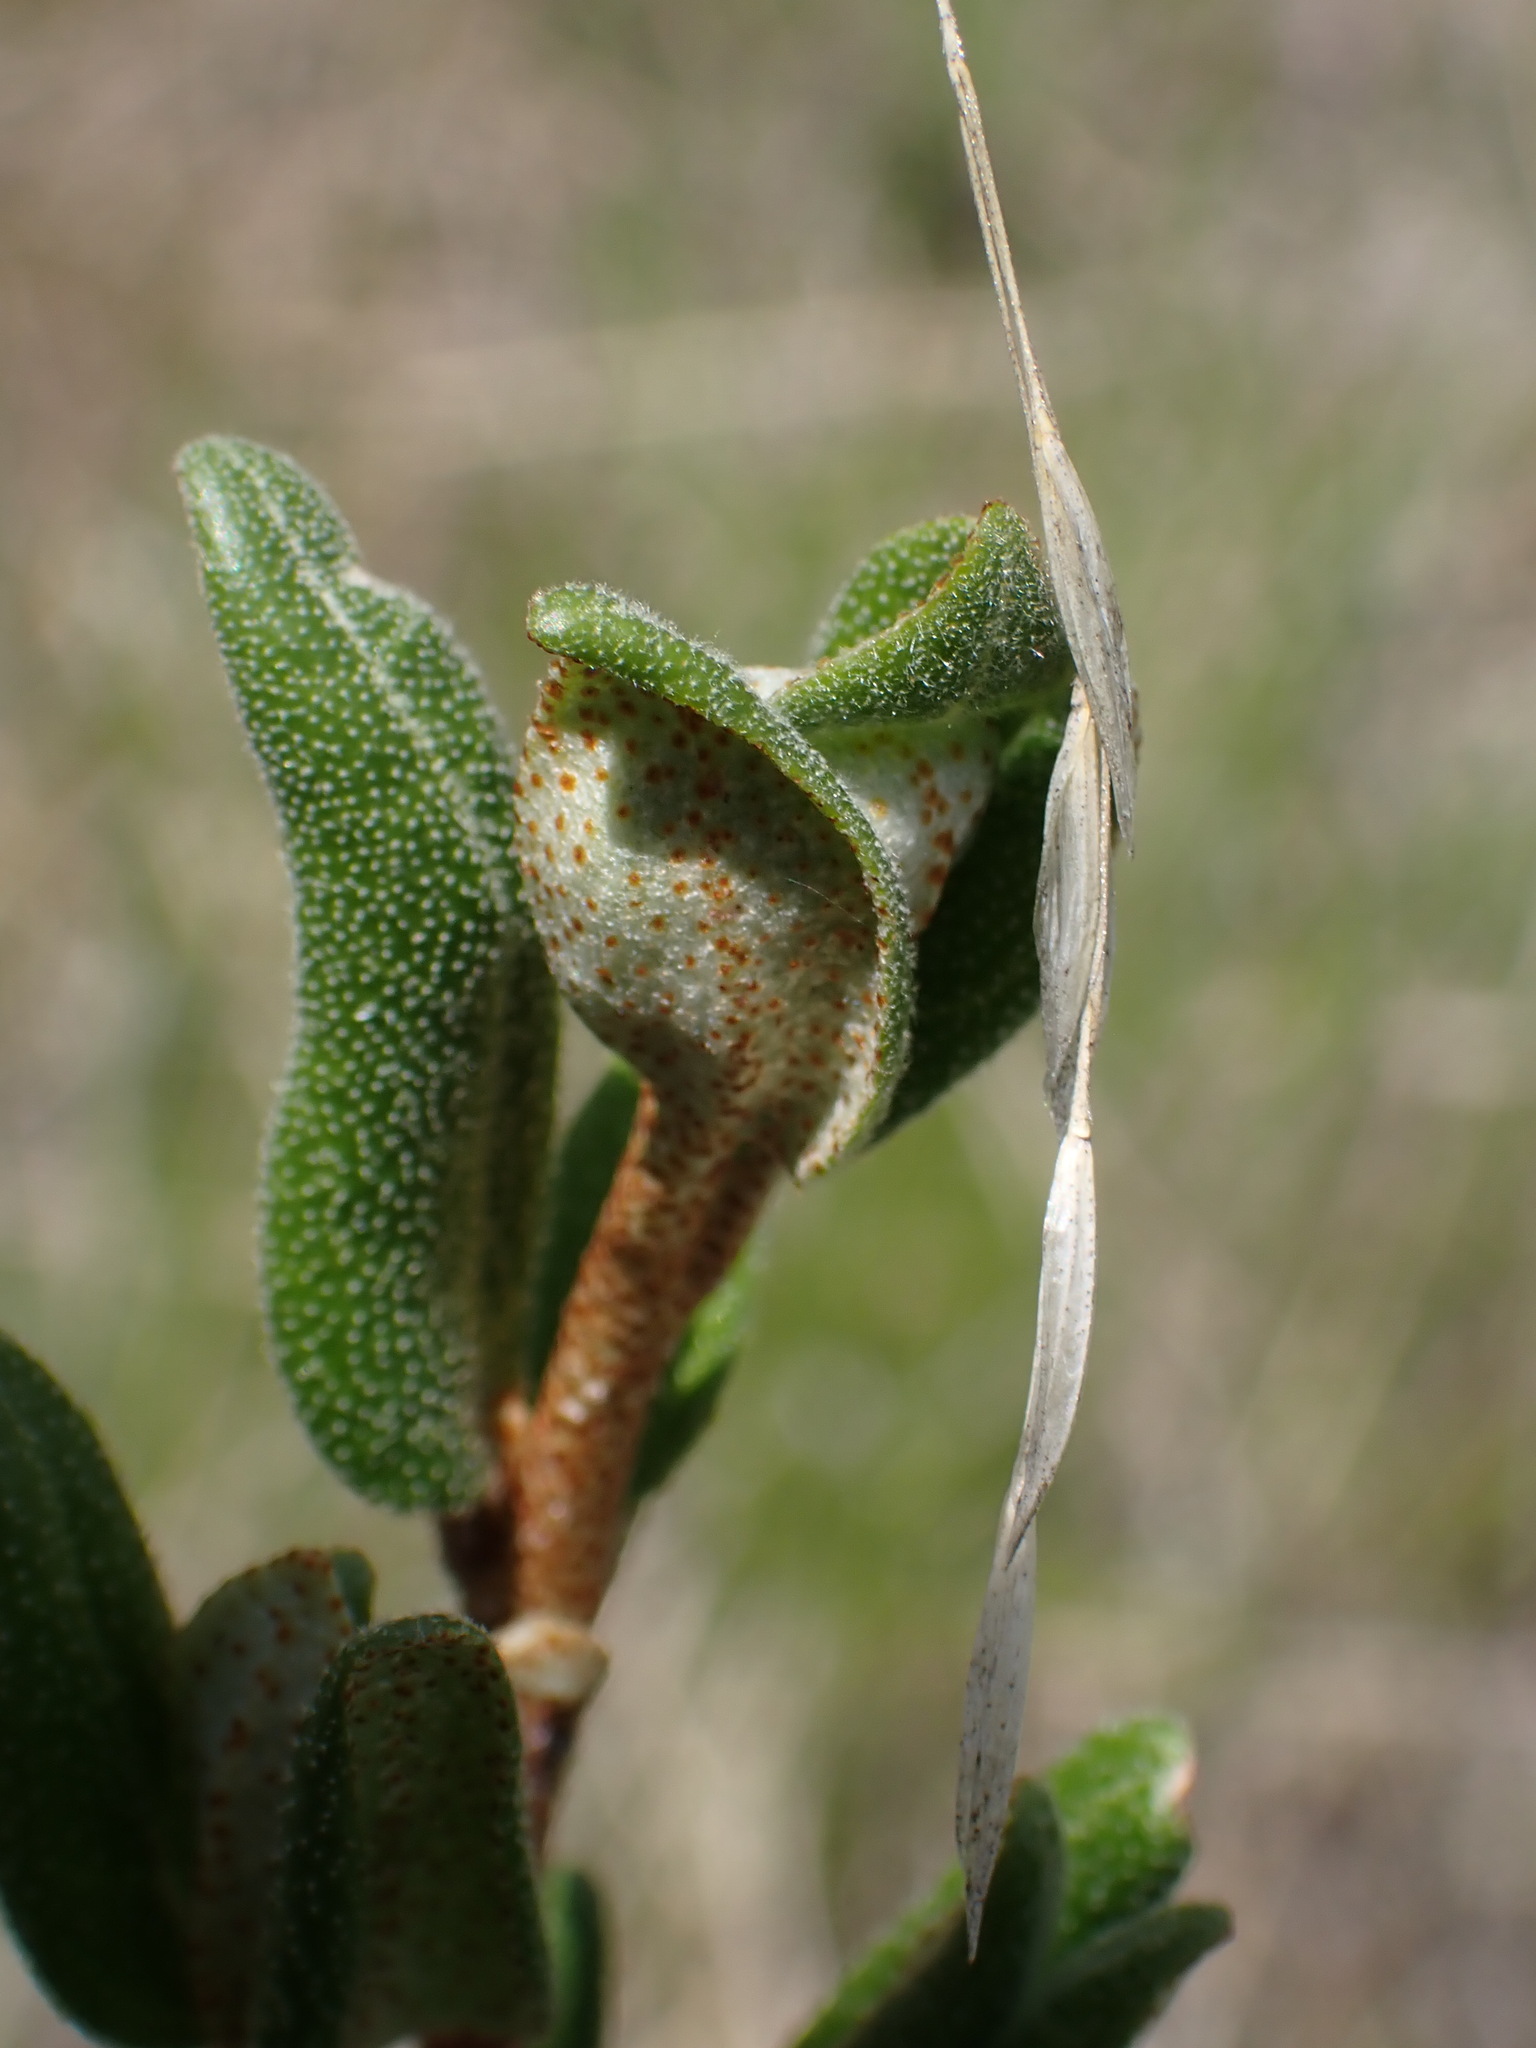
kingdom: Plantae
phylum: Tracheophyta
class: Magnoliopsida
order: Rosales
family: Elaeagnaceae
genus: Shepherdia
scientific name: Shepherdia canadensis
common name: Soapberry
